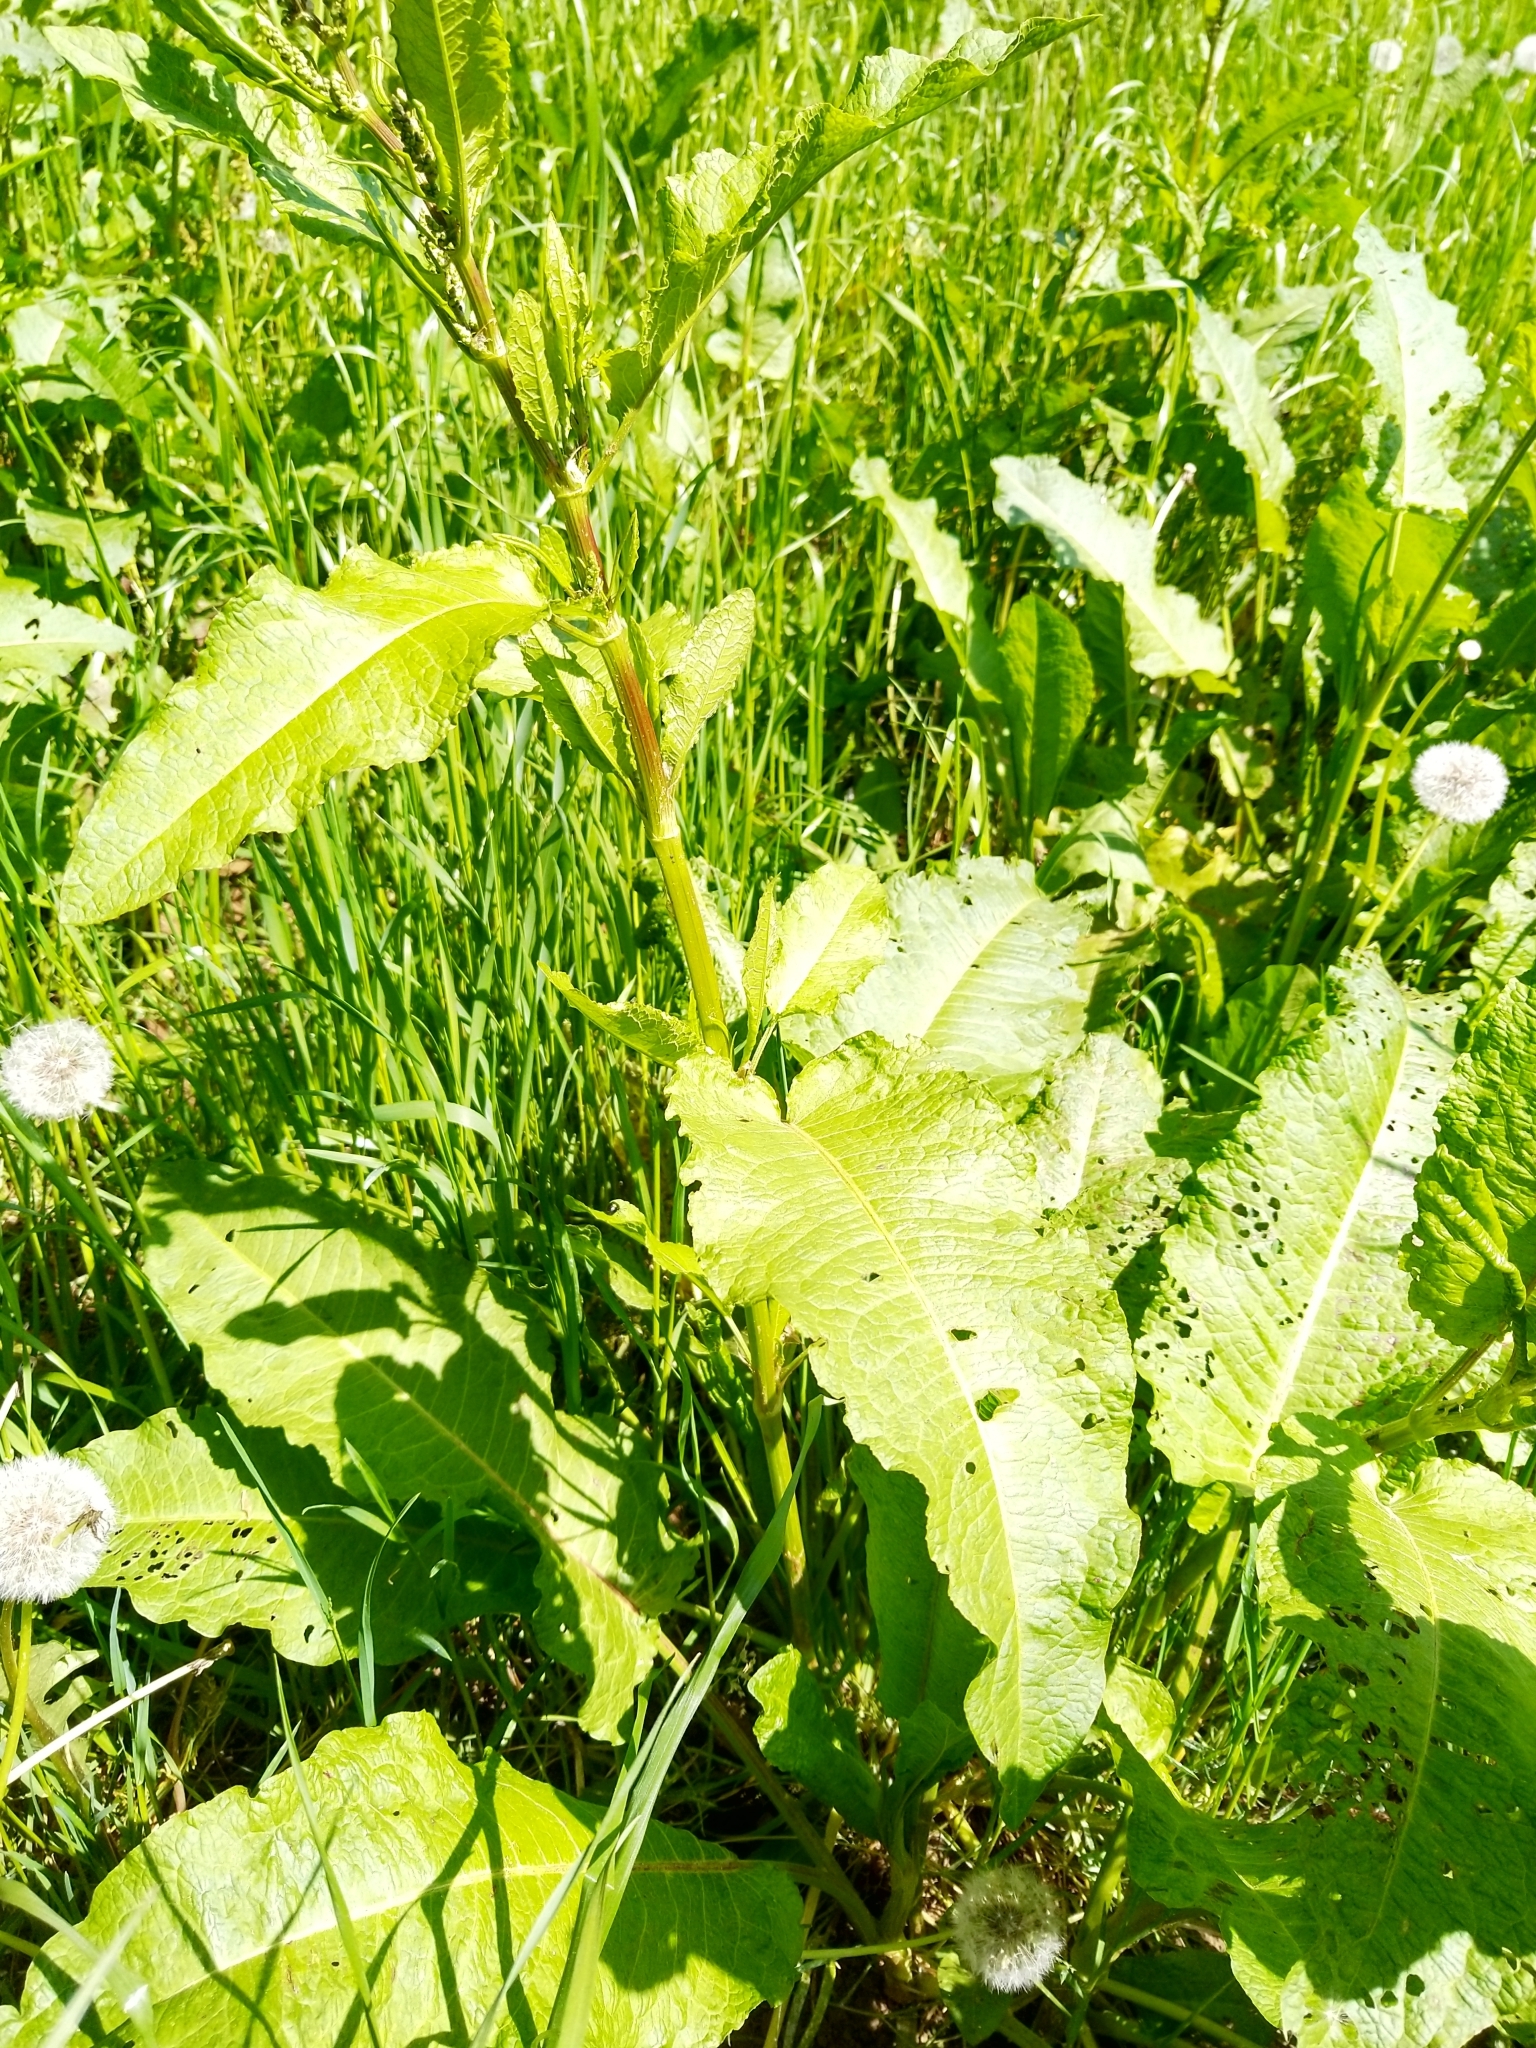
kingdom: Plantae
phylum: Tracheophyta
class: Magnoliopsida
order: Caryophyllales
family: Polygonaceae
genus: Rumex
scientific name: Rumex obtusifolius
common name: Bitter dock
